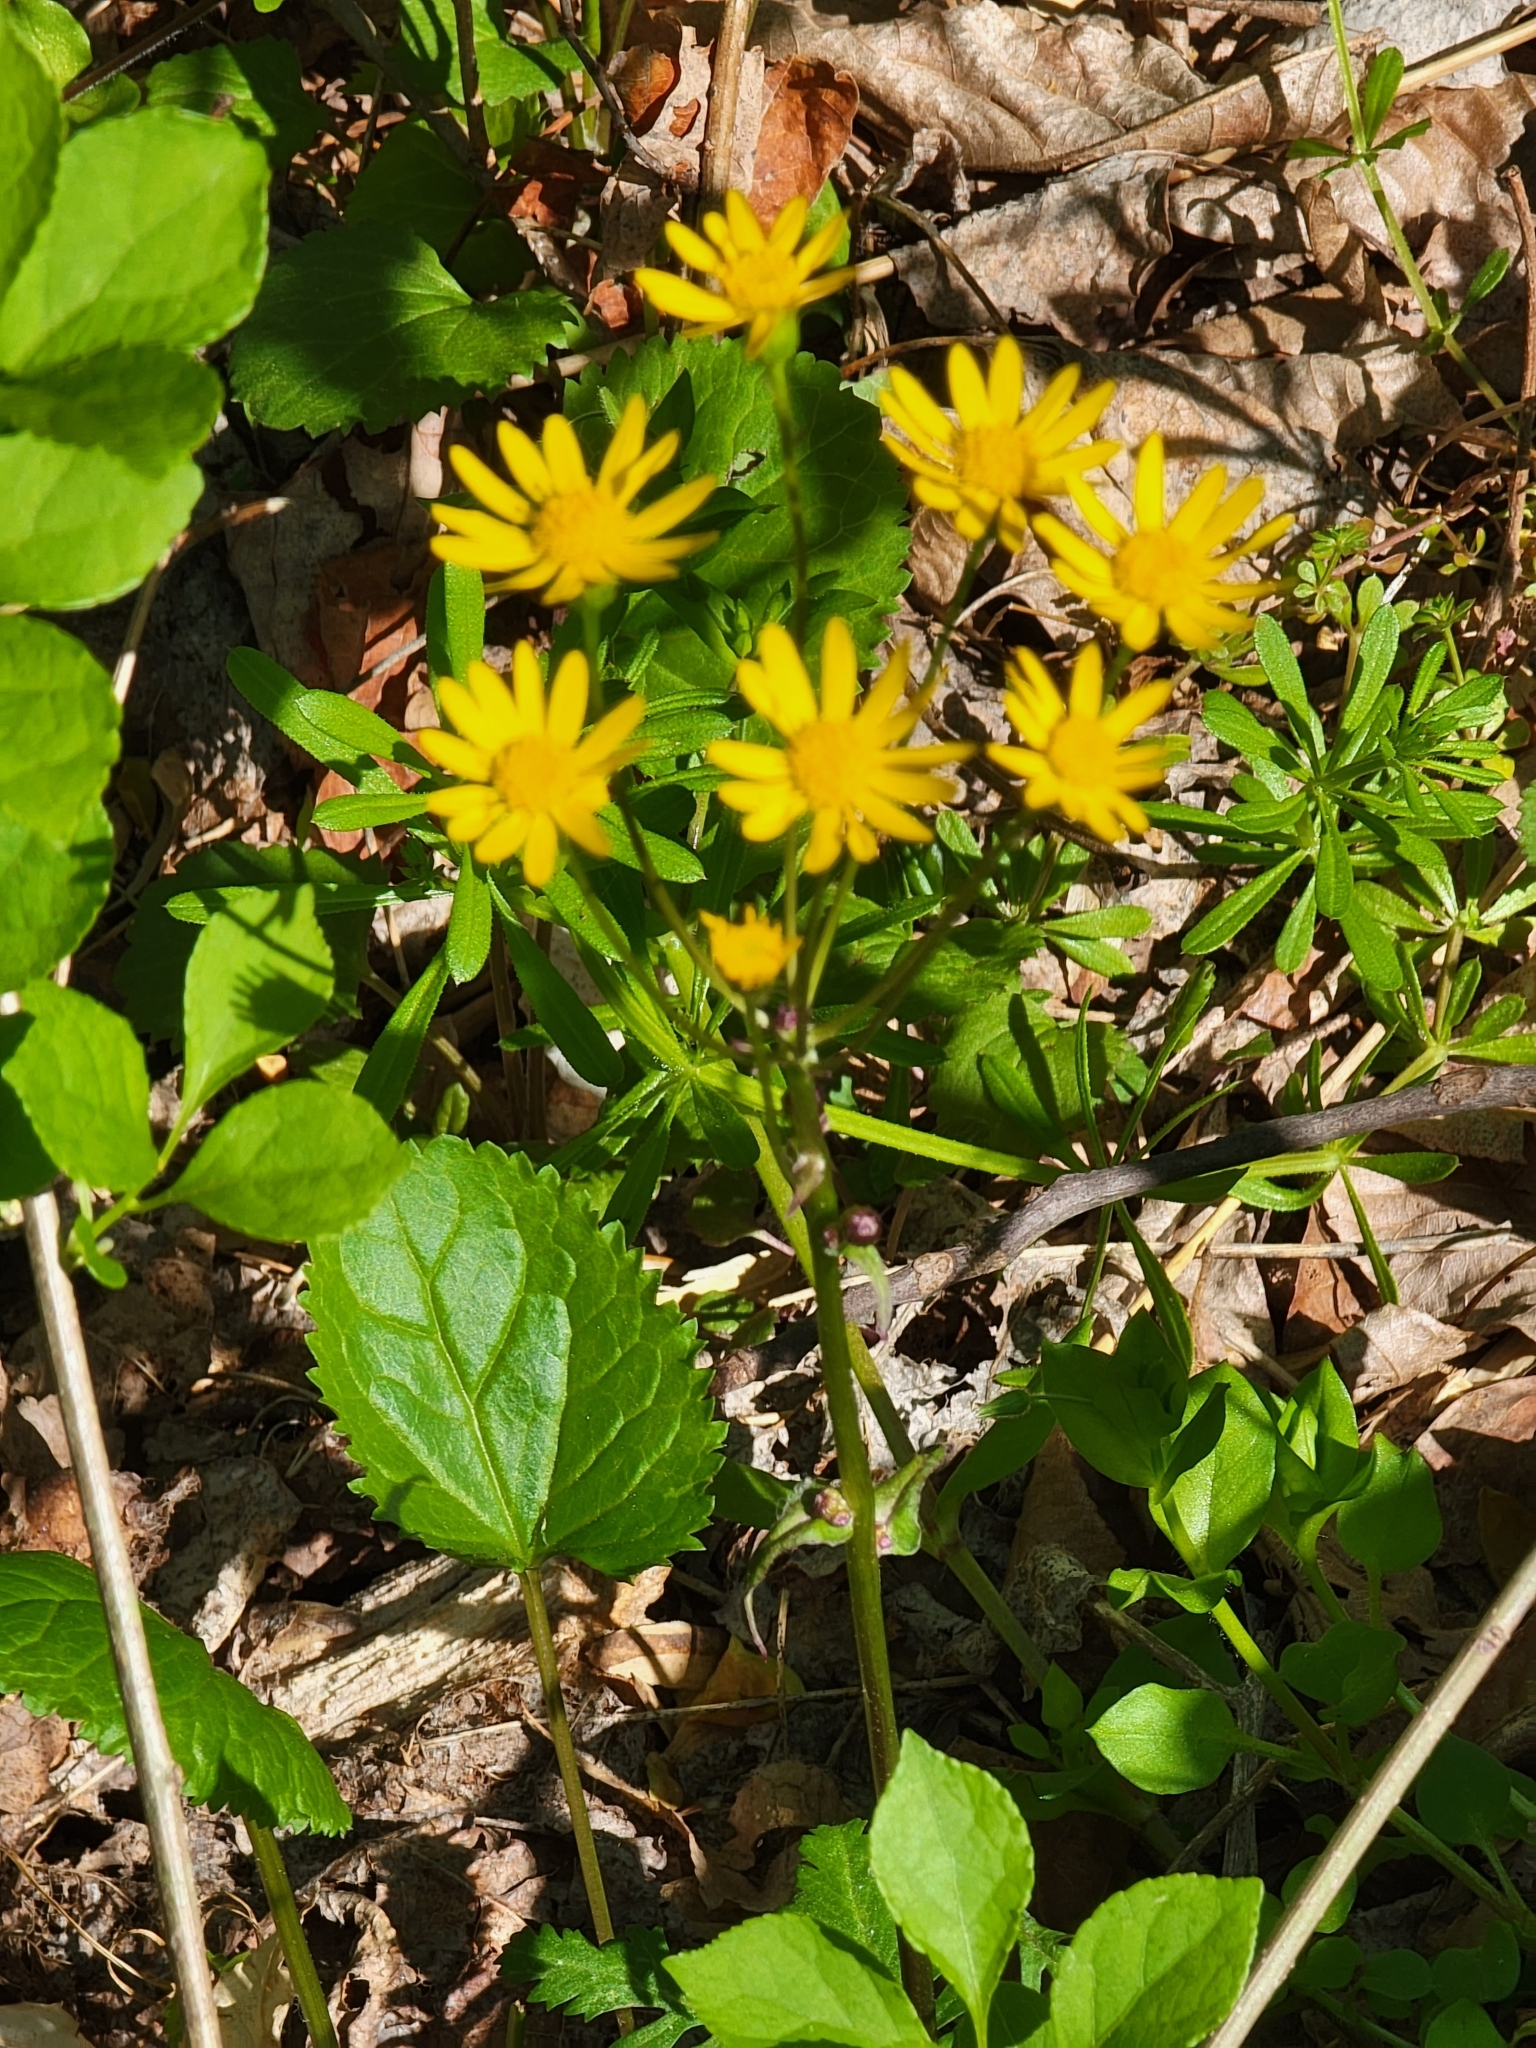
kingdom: Plantae
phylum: Tracheophyta
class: Magnoliopsida
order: Asterales
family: Asteraceae
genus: Packera
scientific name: Packera aurea
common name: Golden groundsel
